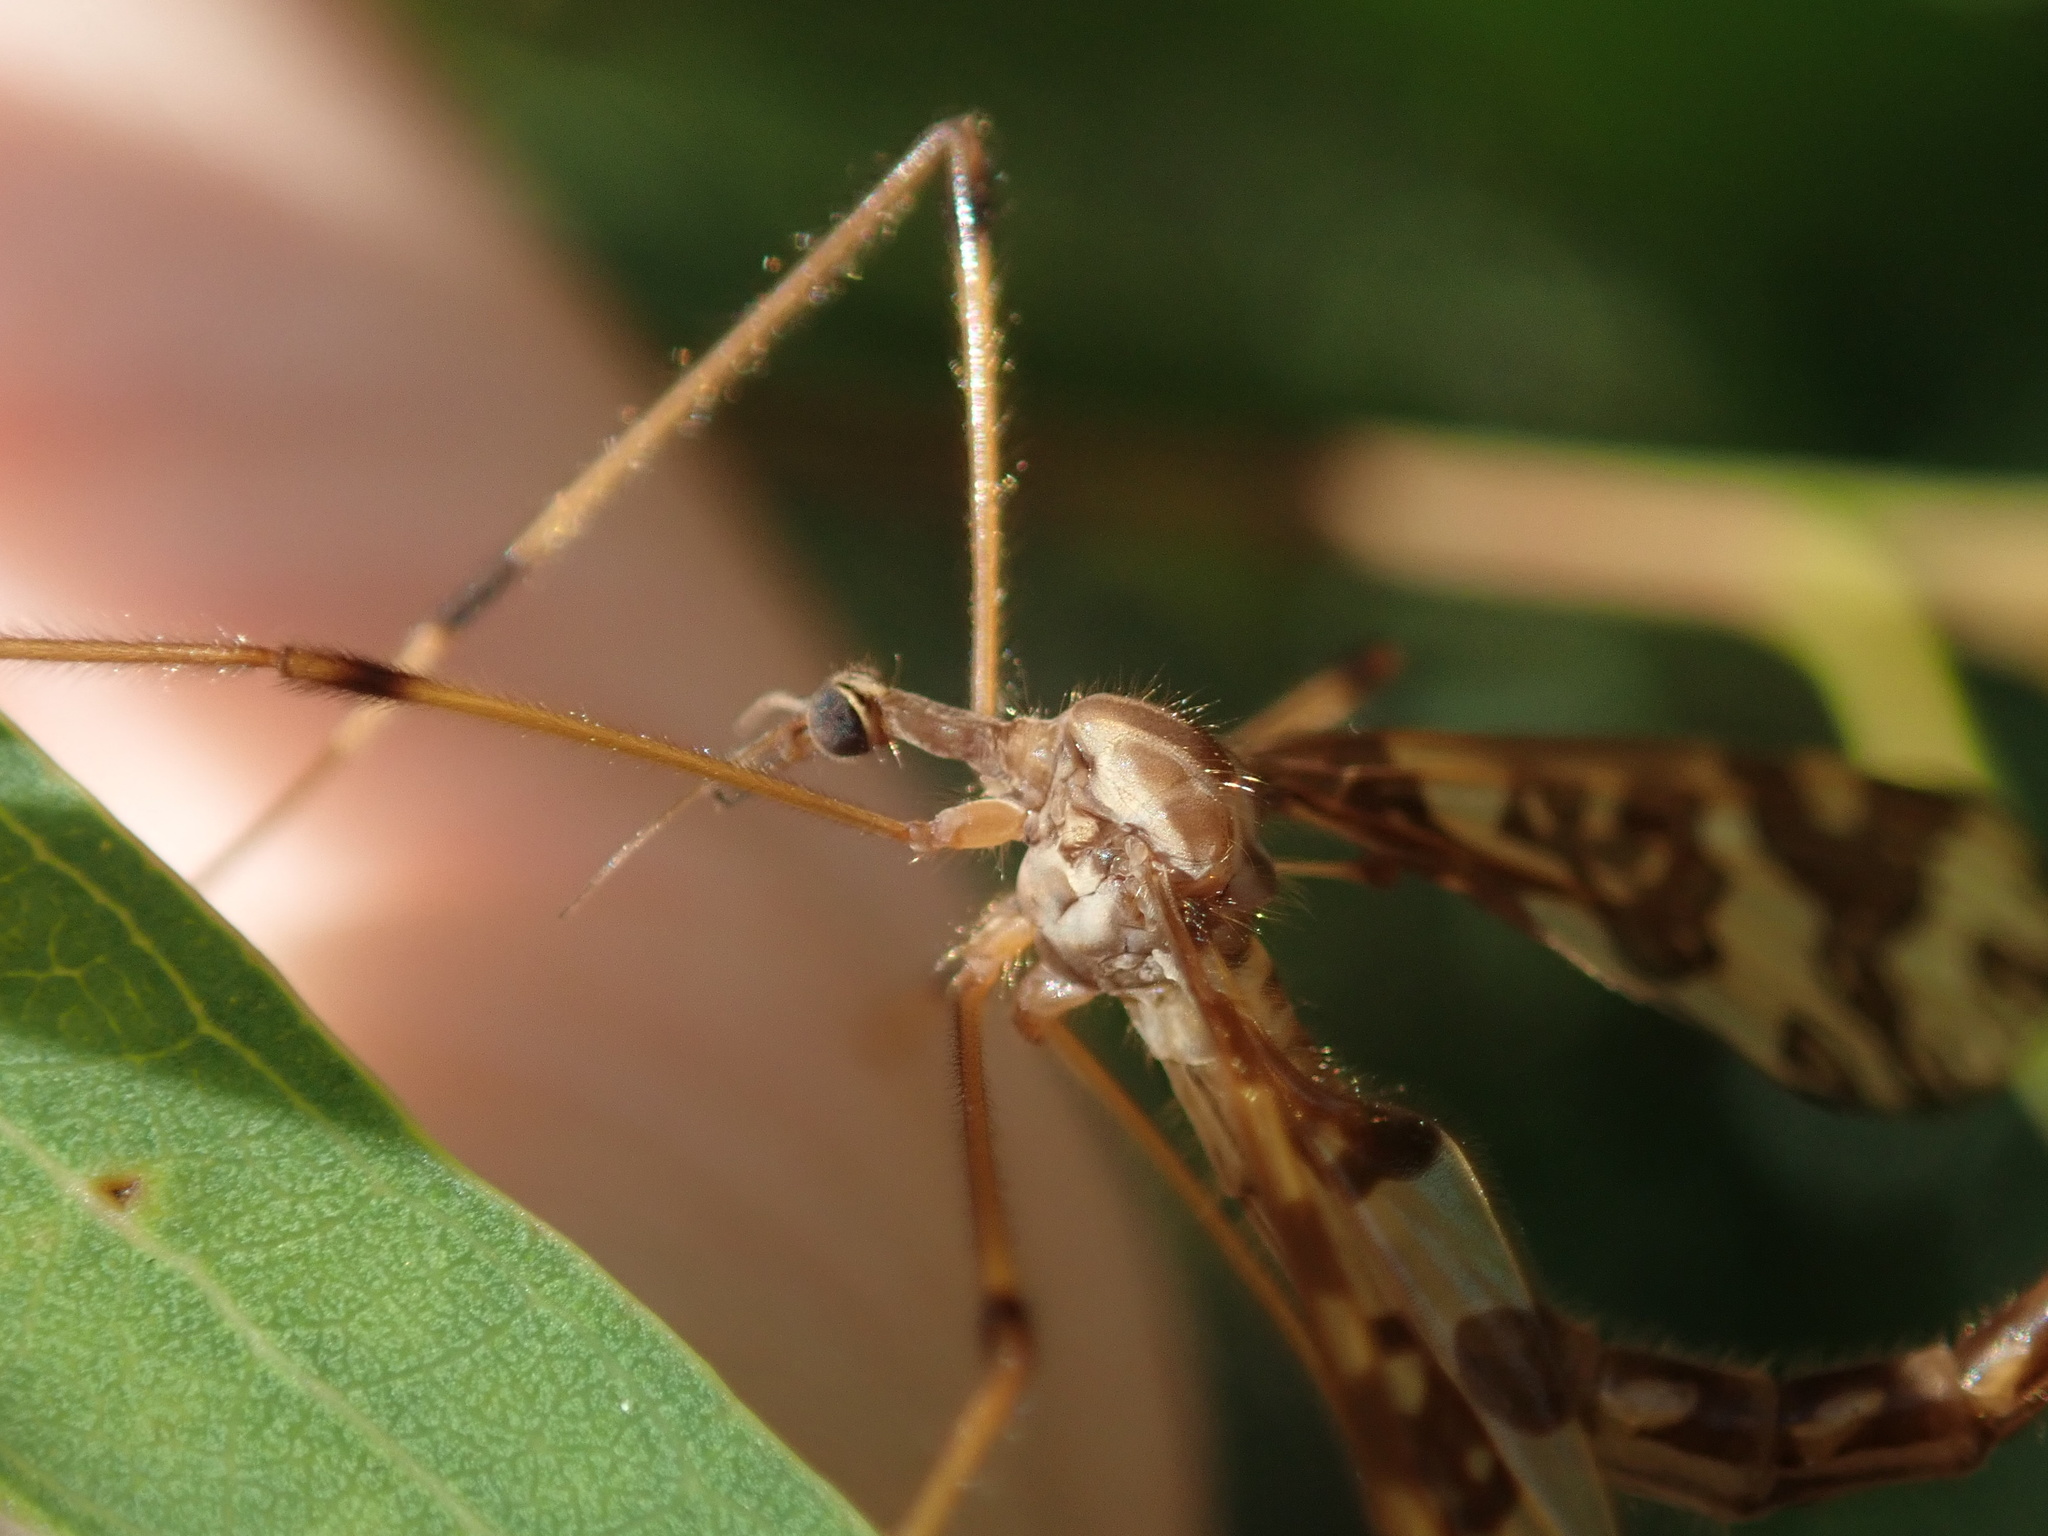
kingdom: Animalia
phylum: Arthropoda
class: Insecta
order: Diptera
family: Tanyderidae
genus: Tanyderus
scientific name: Tanyderus annuliferus
